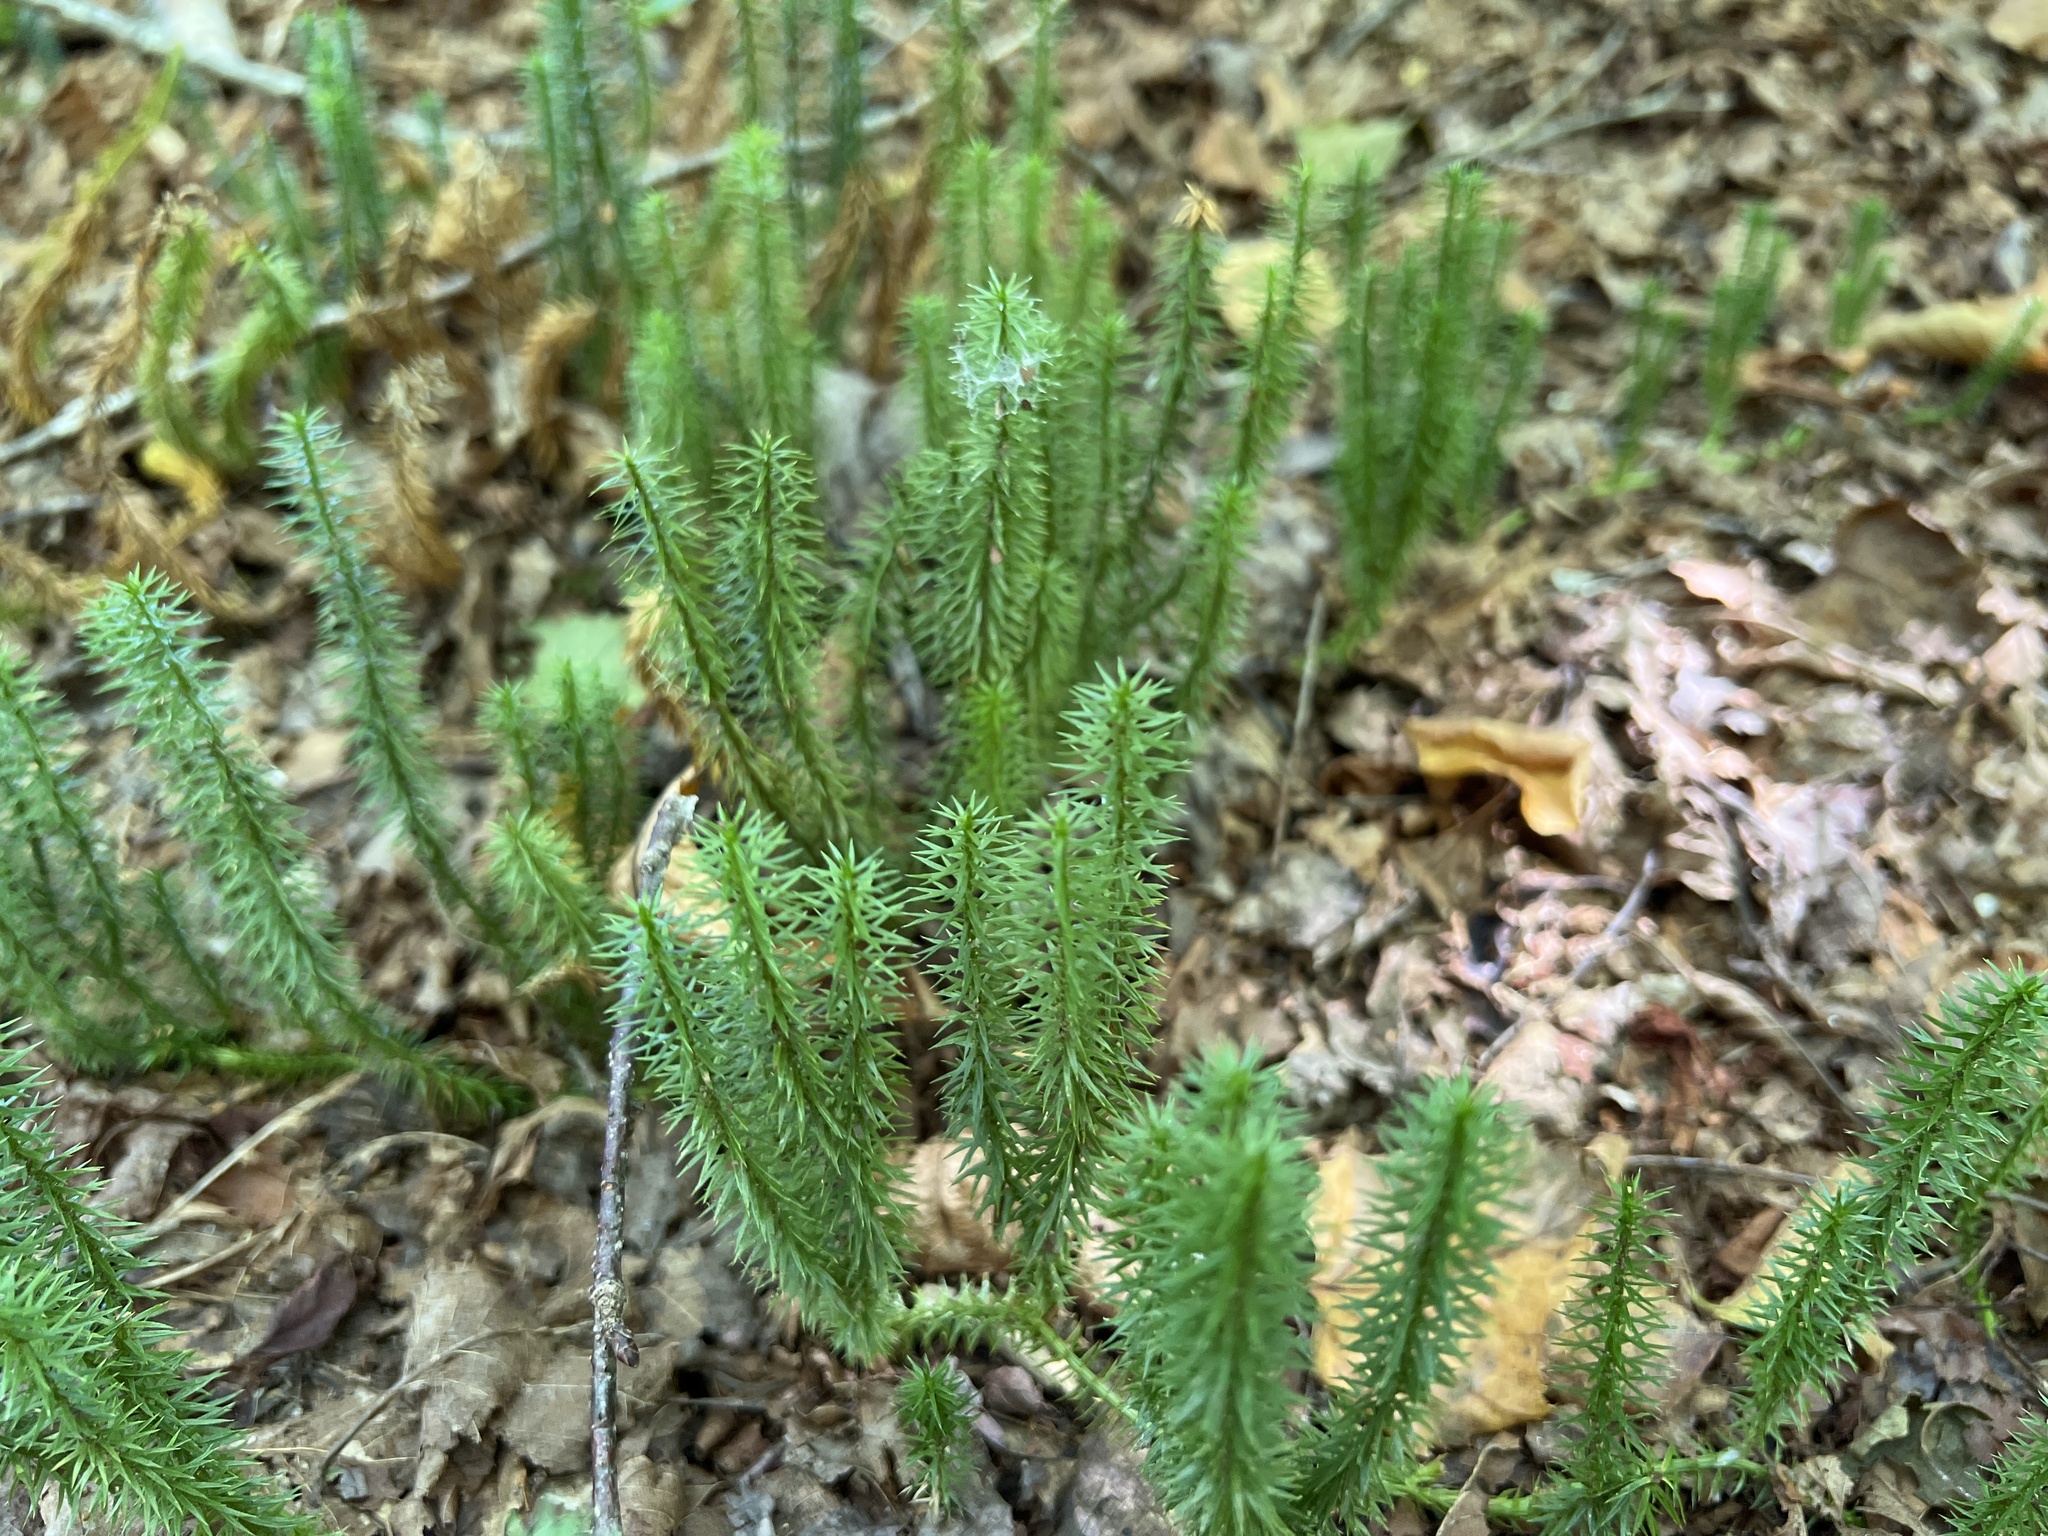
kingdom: Plantae
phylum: Tracheophyta
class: Lycopodiopsida
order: Lycopodiales
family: Lycopodiaceae
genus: Spinulum
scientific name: Spinulum annotinum
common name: Interrupted club-moss
